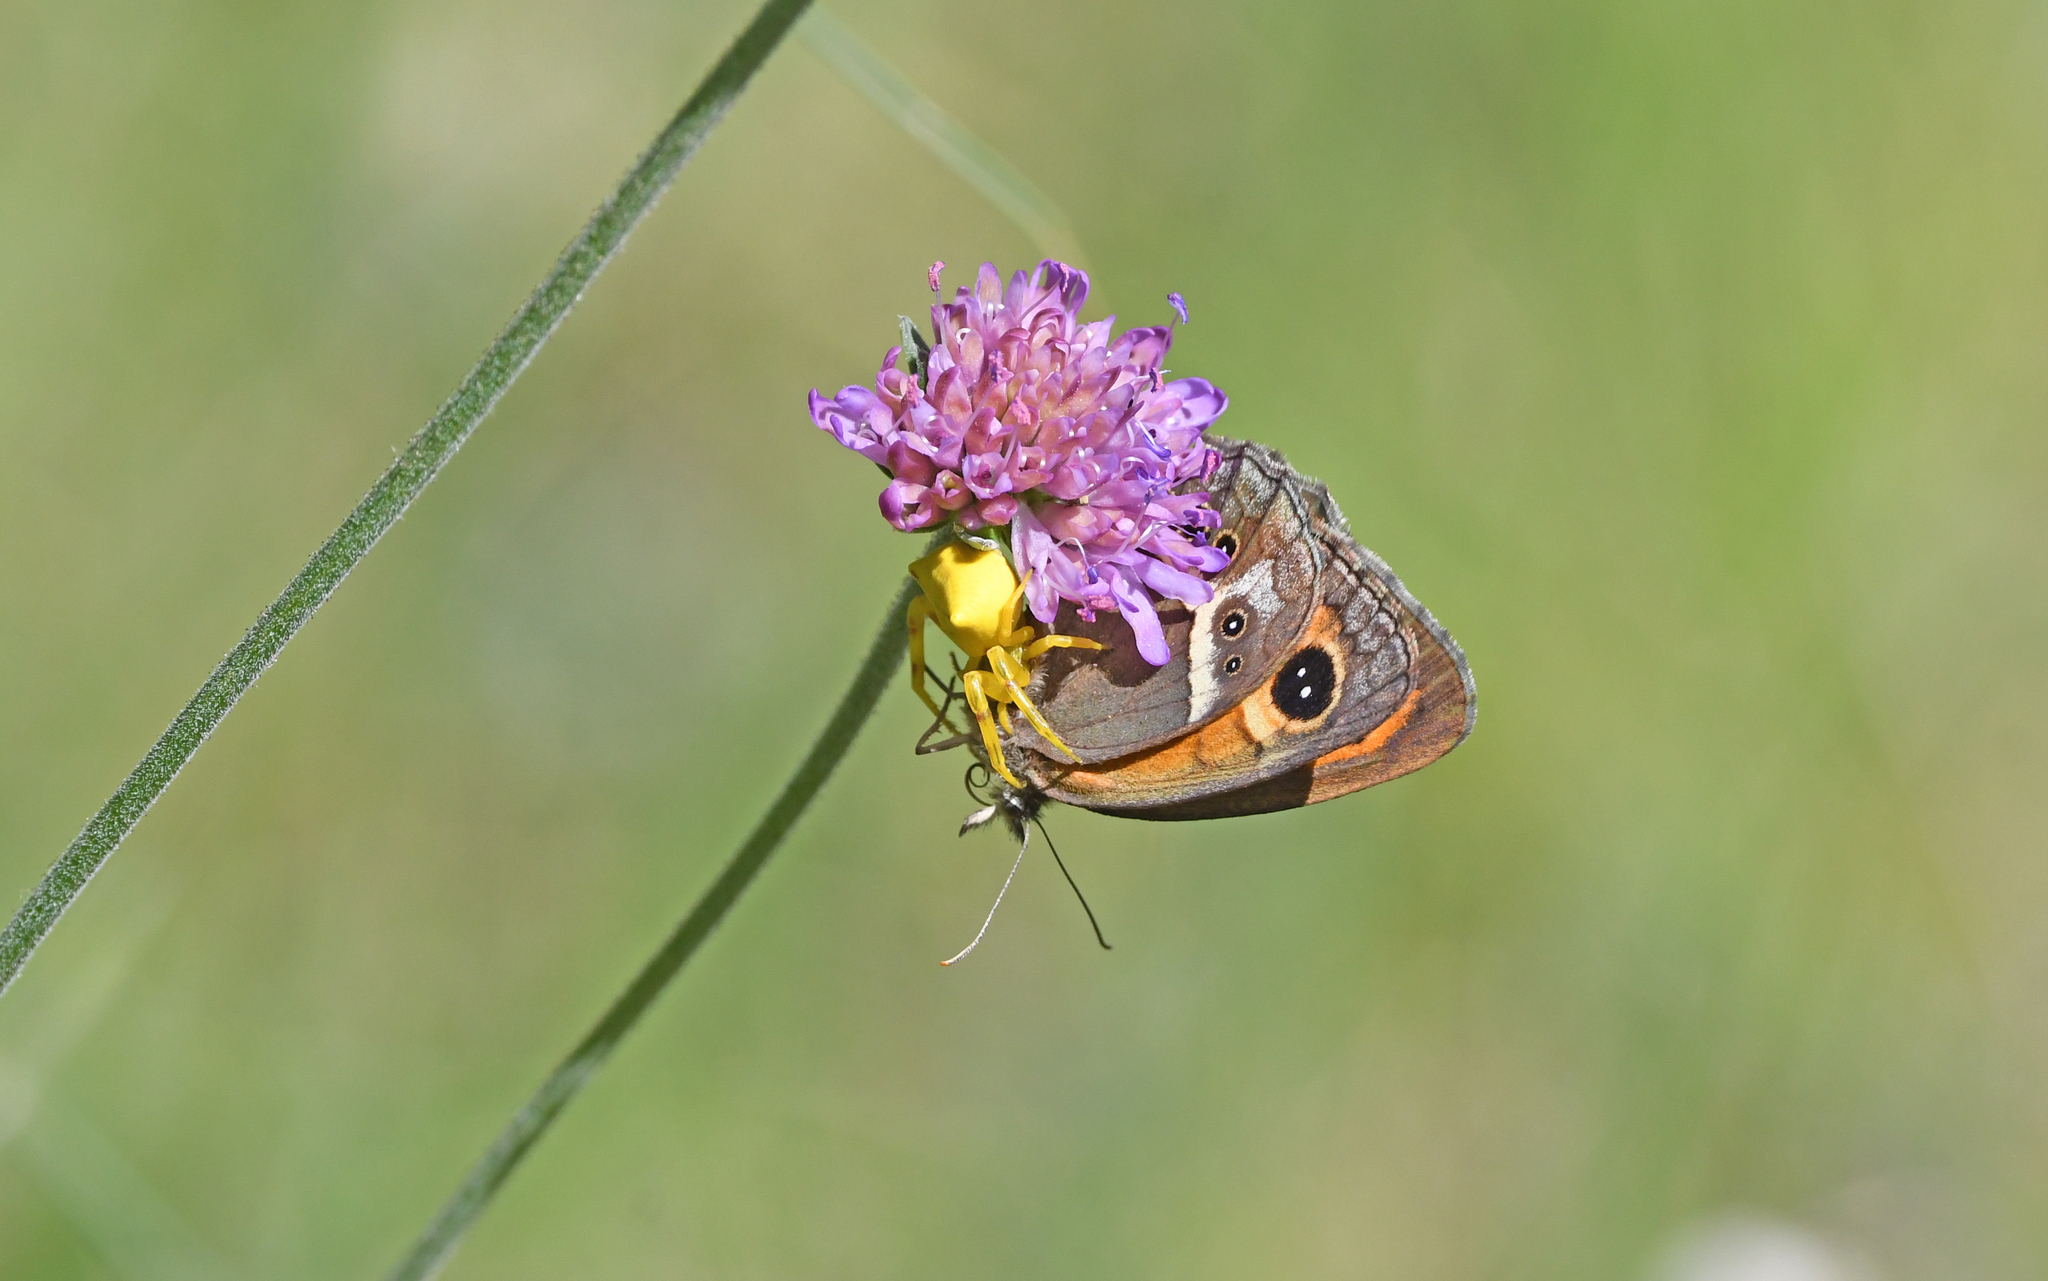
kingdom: Animalia
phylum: Arthropoda
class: Arachnida
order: Araneae
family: Thomisidae
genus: Thomisus
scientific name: Thomisus onustus
